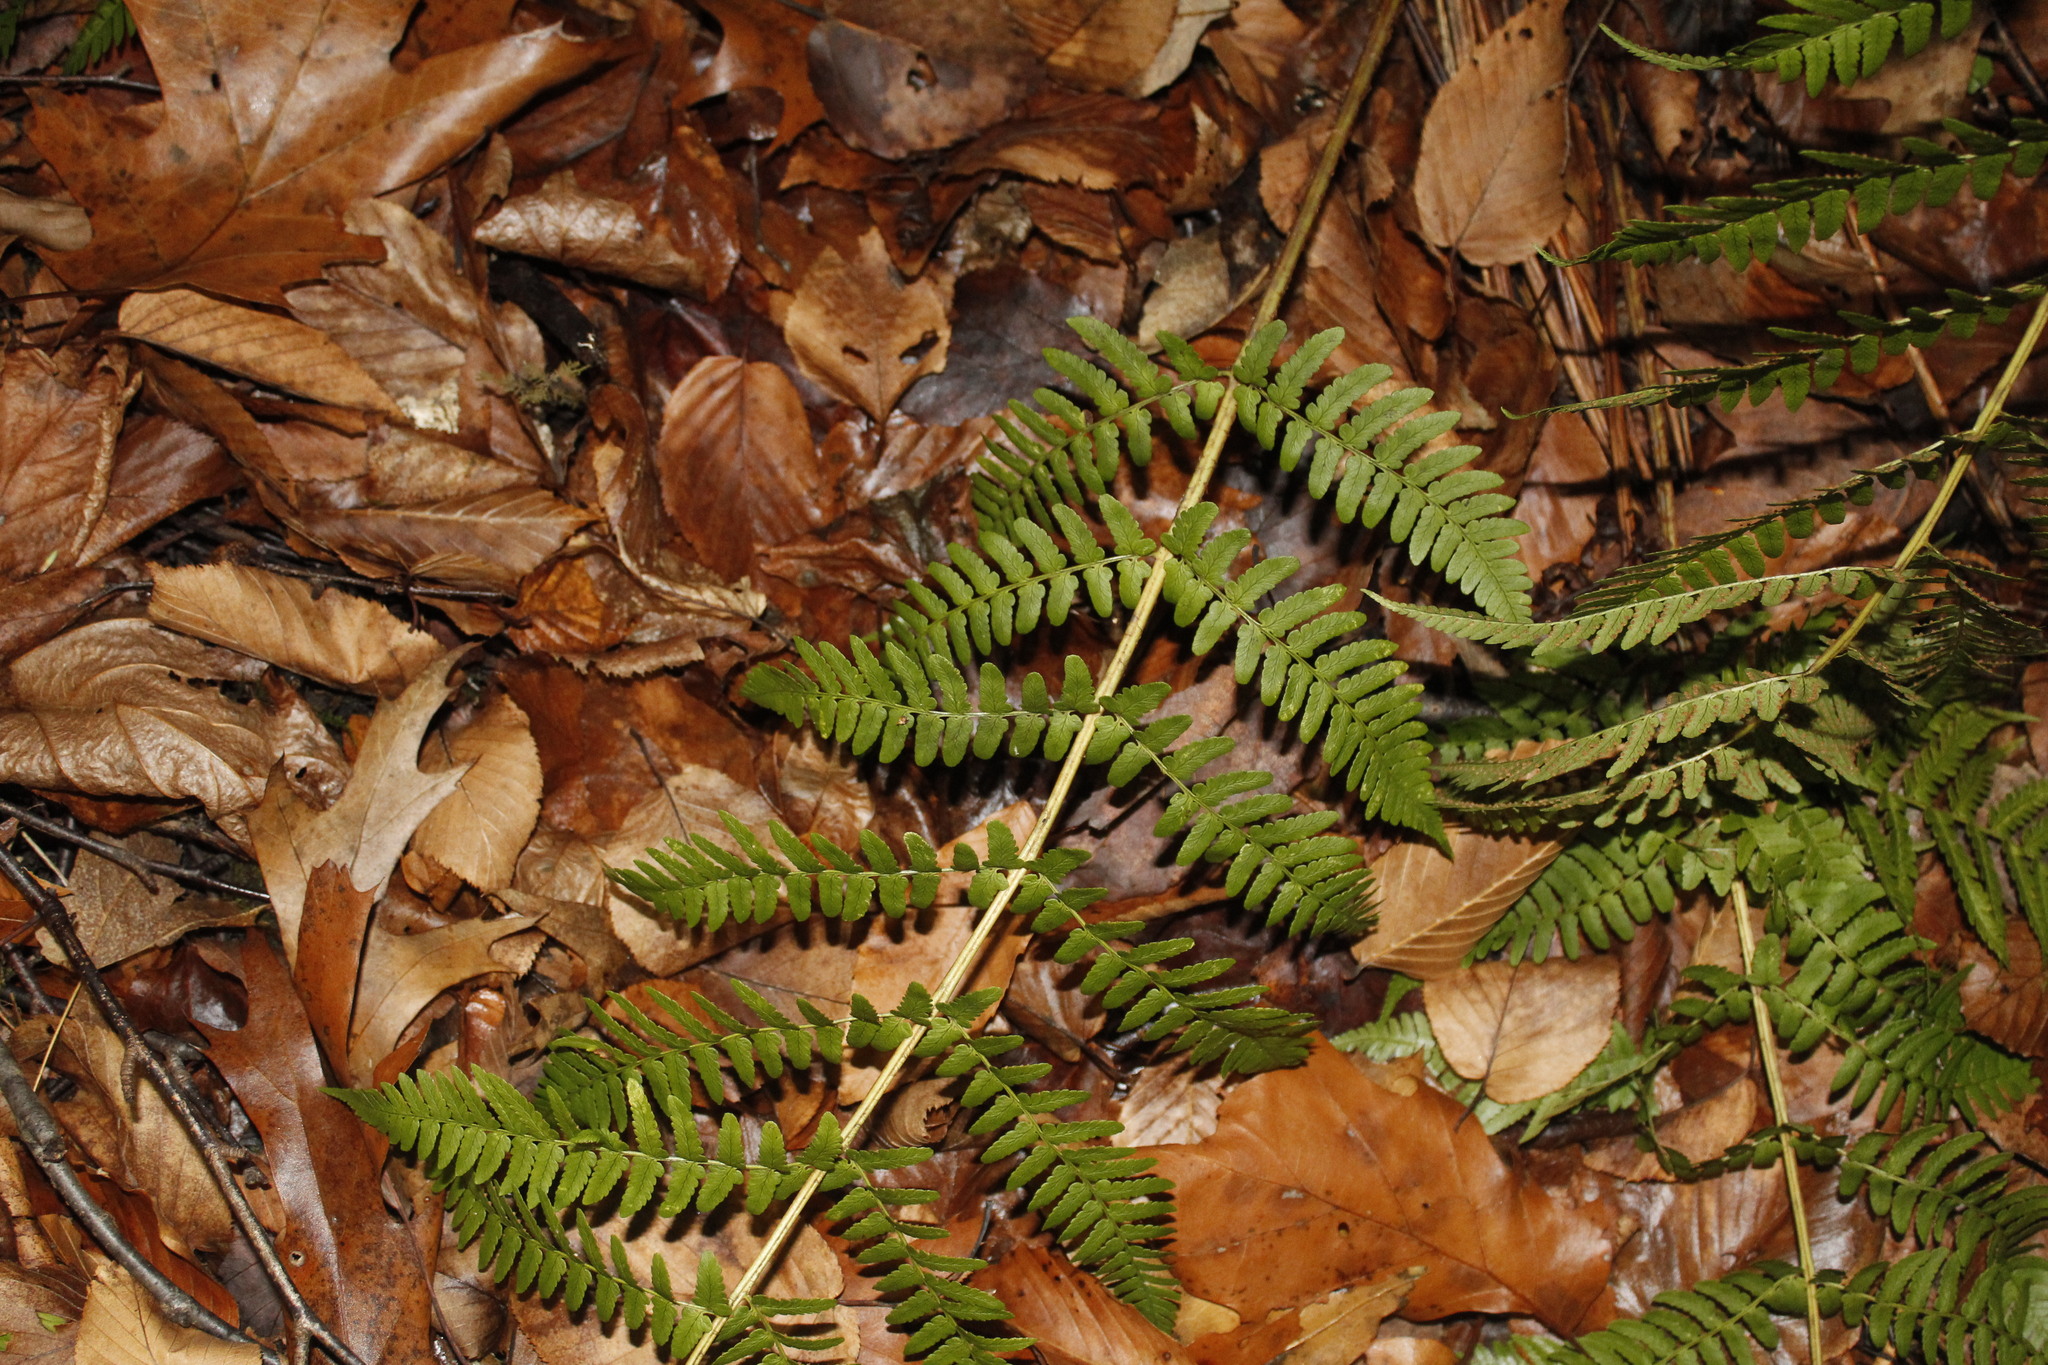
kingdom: Plantae
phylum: Tracheophyta
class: Polypodiopsida
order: Polypodiales
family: Dryopteridaceae
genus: Dryopteris
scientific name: Dryopteris marginalis
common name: Marginal wood fern
